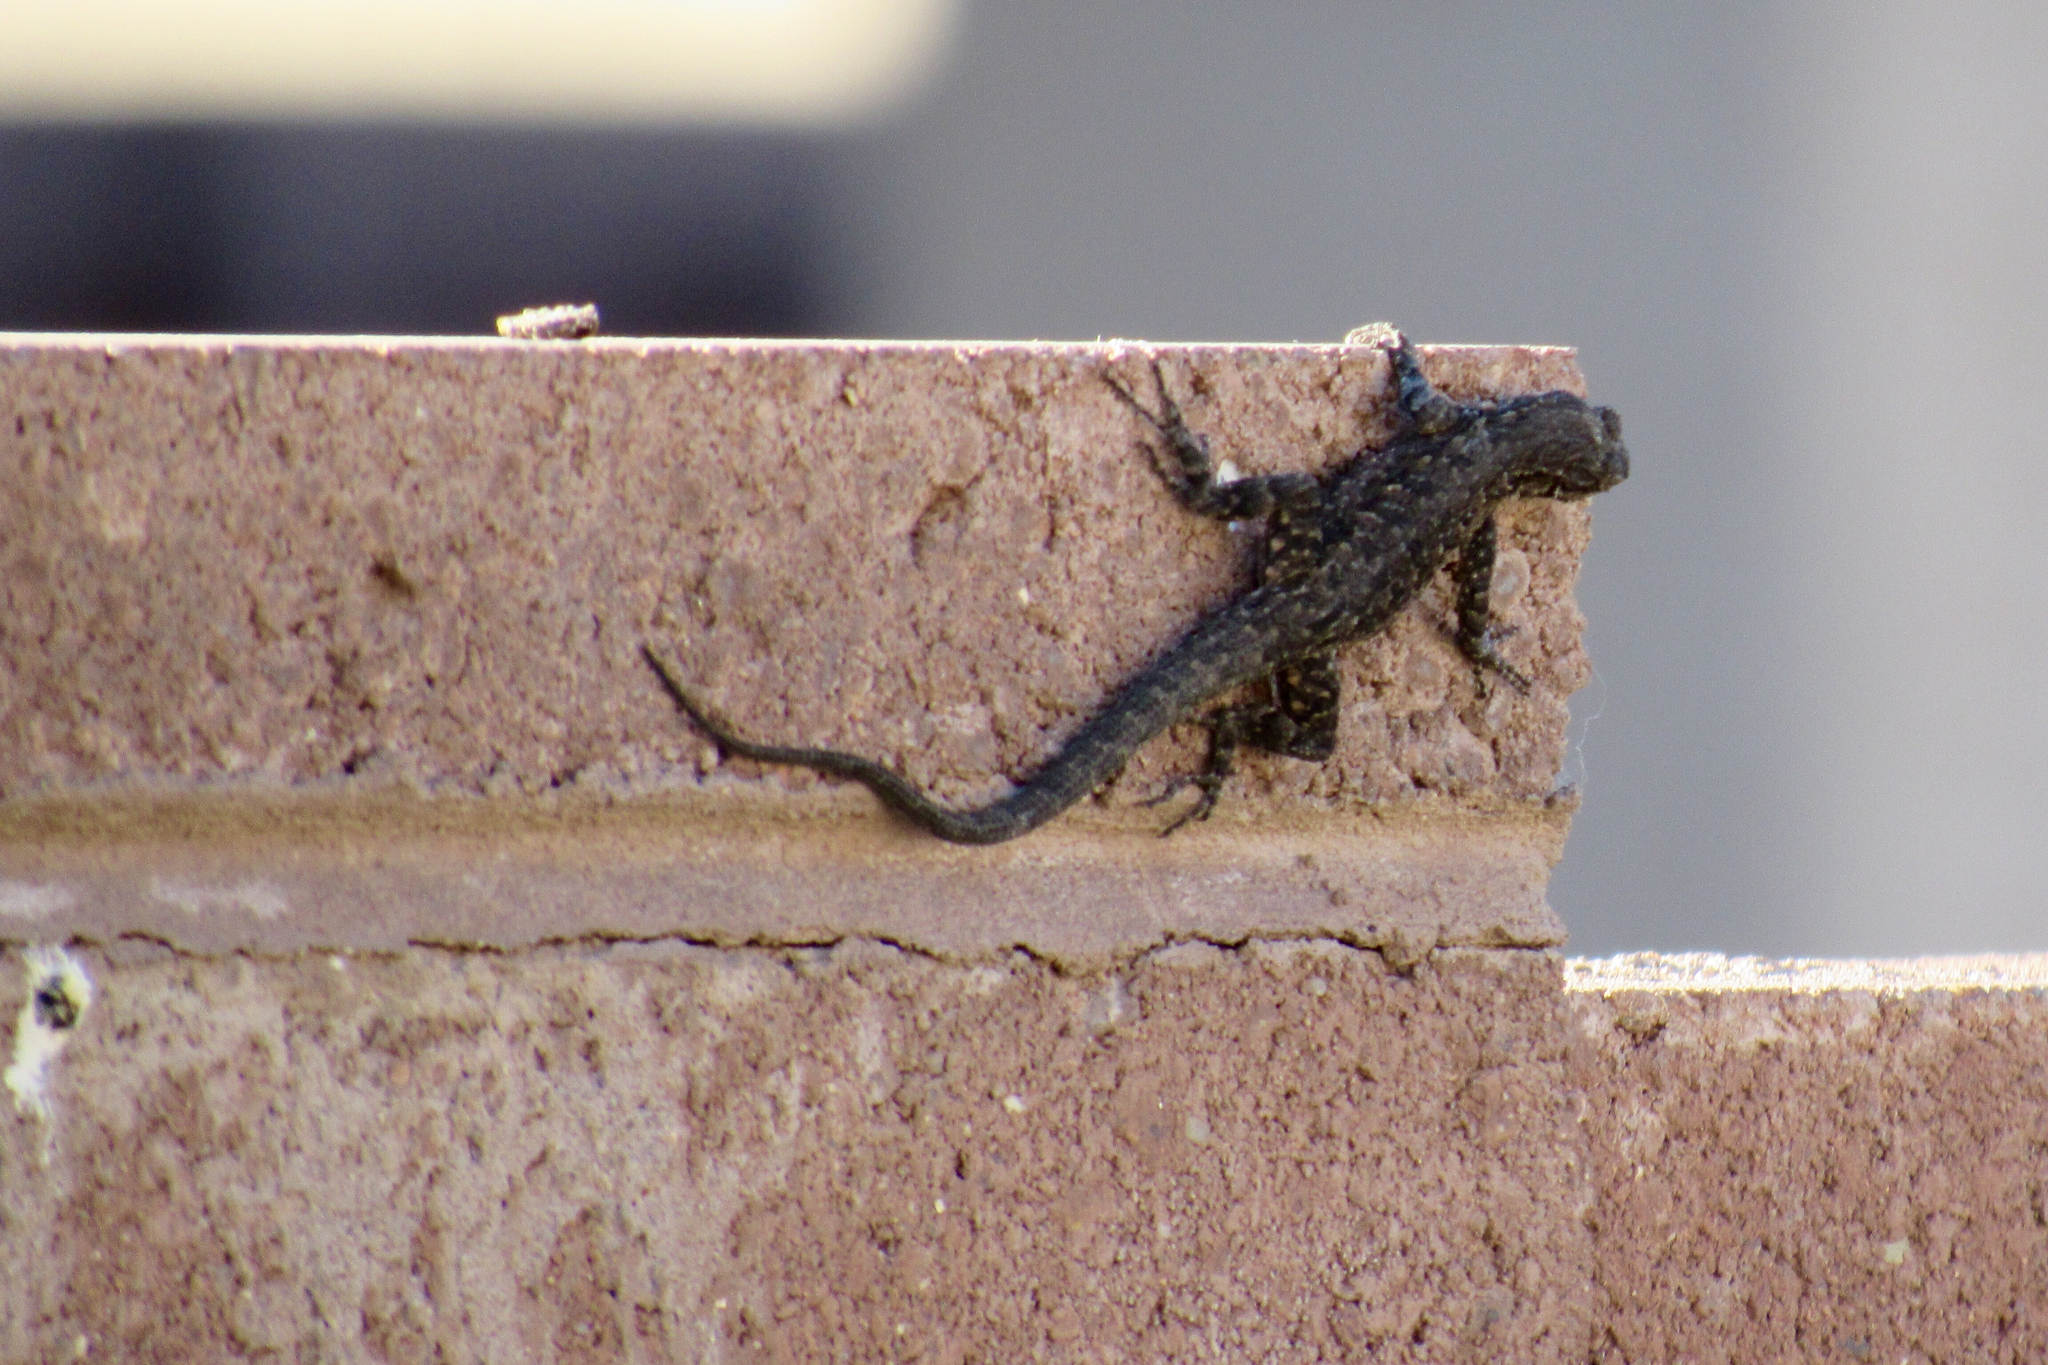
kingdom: Animalia
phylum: Chordata
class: Squamata
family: Phrynosomatidae
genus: Urosaurus
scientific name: Urosaurus ornatus
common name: Ornate tree lizard
